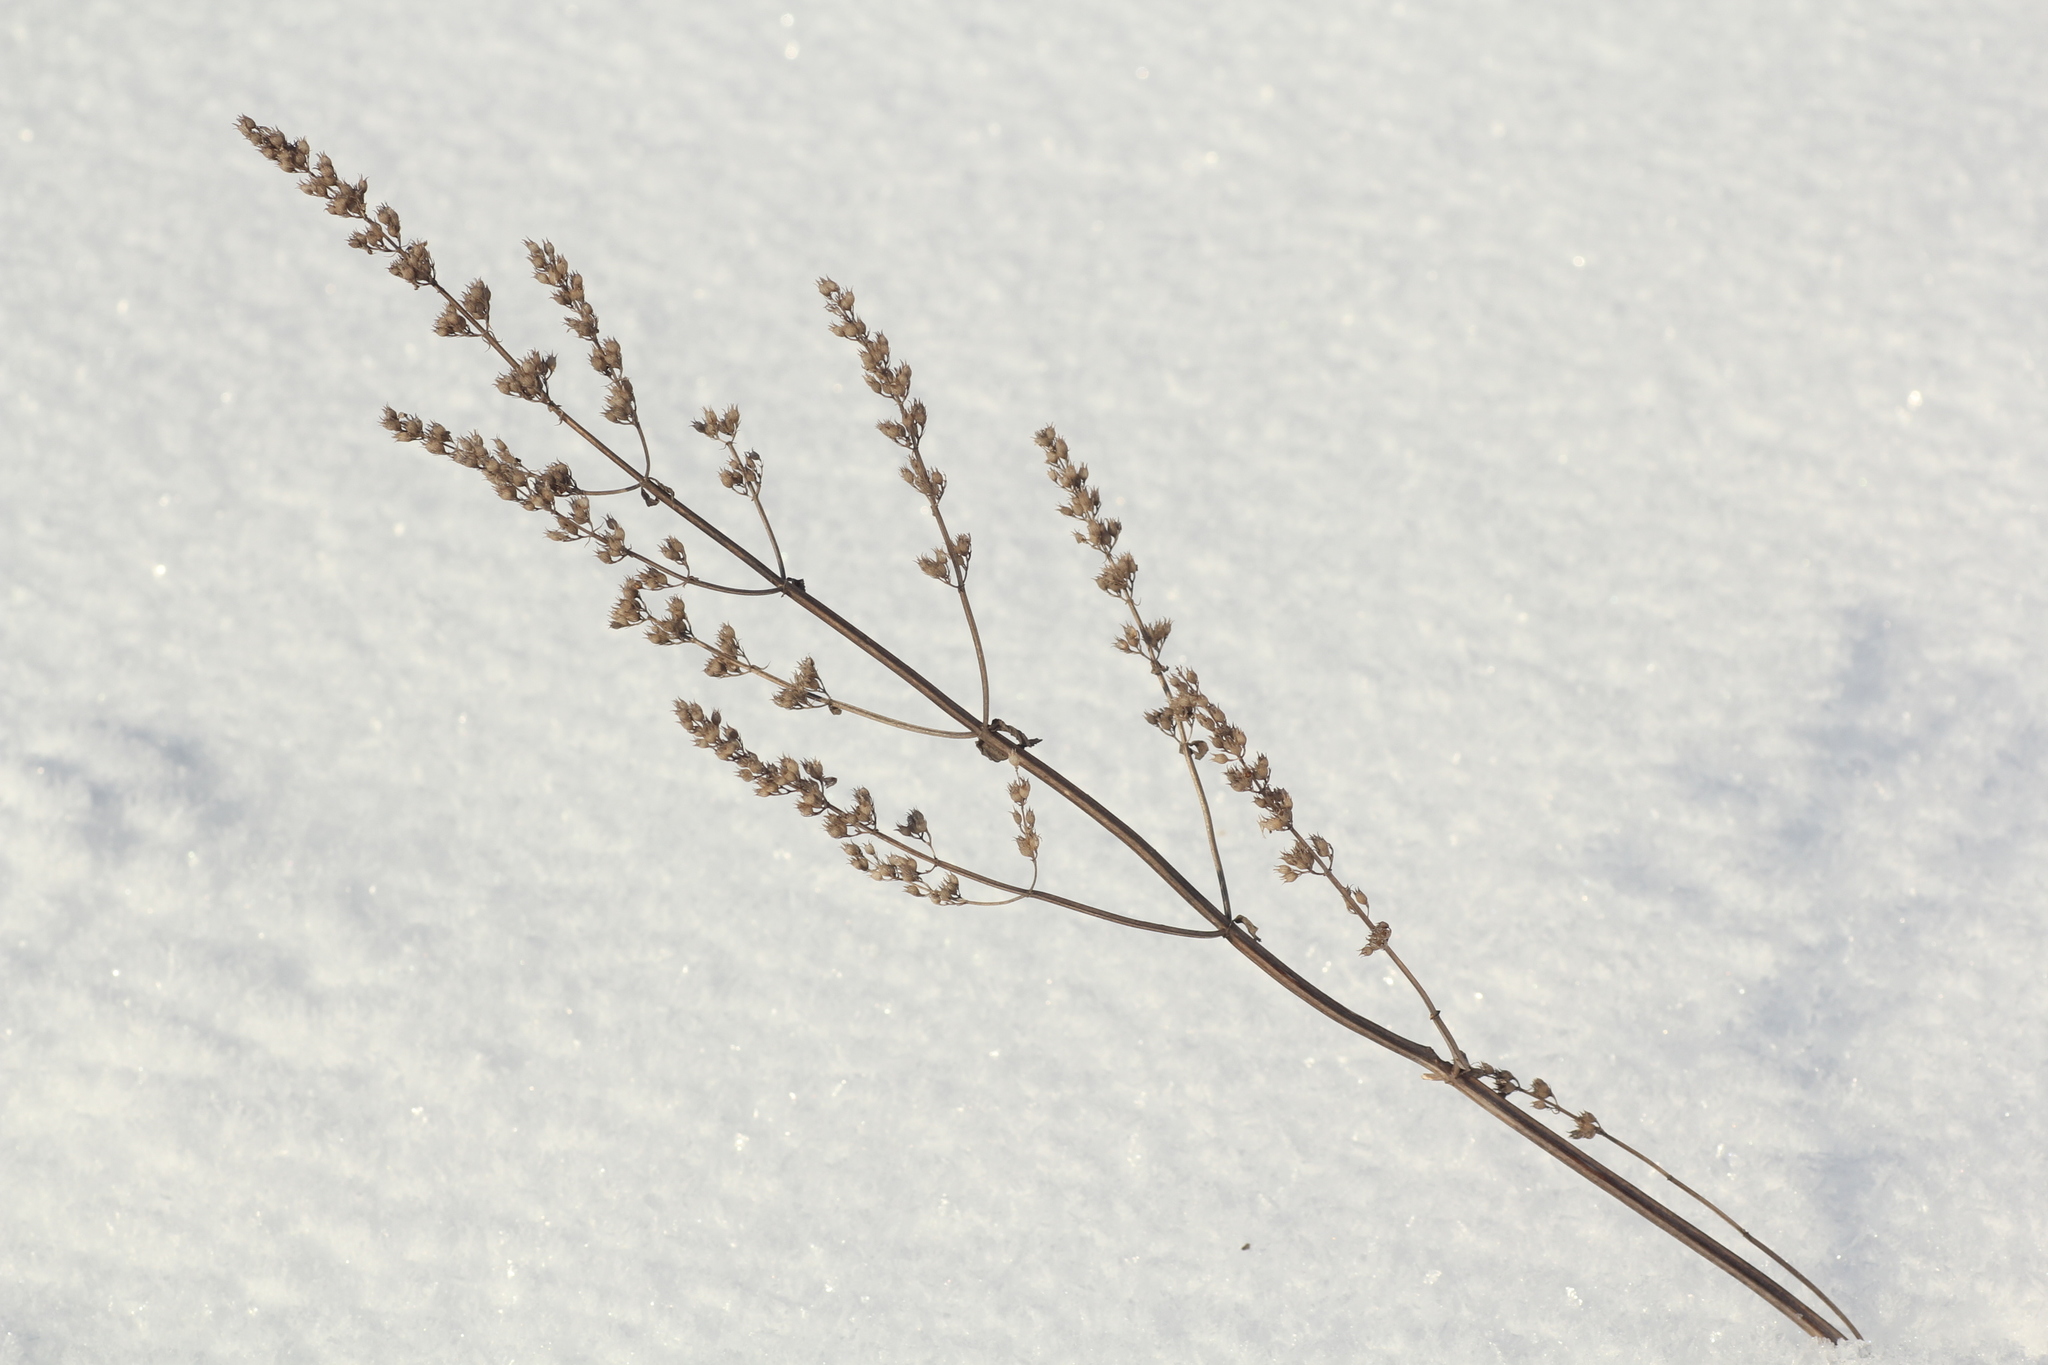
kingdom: Plantae
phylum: Tracheophyta
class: Magnoliopsida
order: Lamiales
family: Lamiaceae
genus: Salvia
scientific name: Salvia deserta
